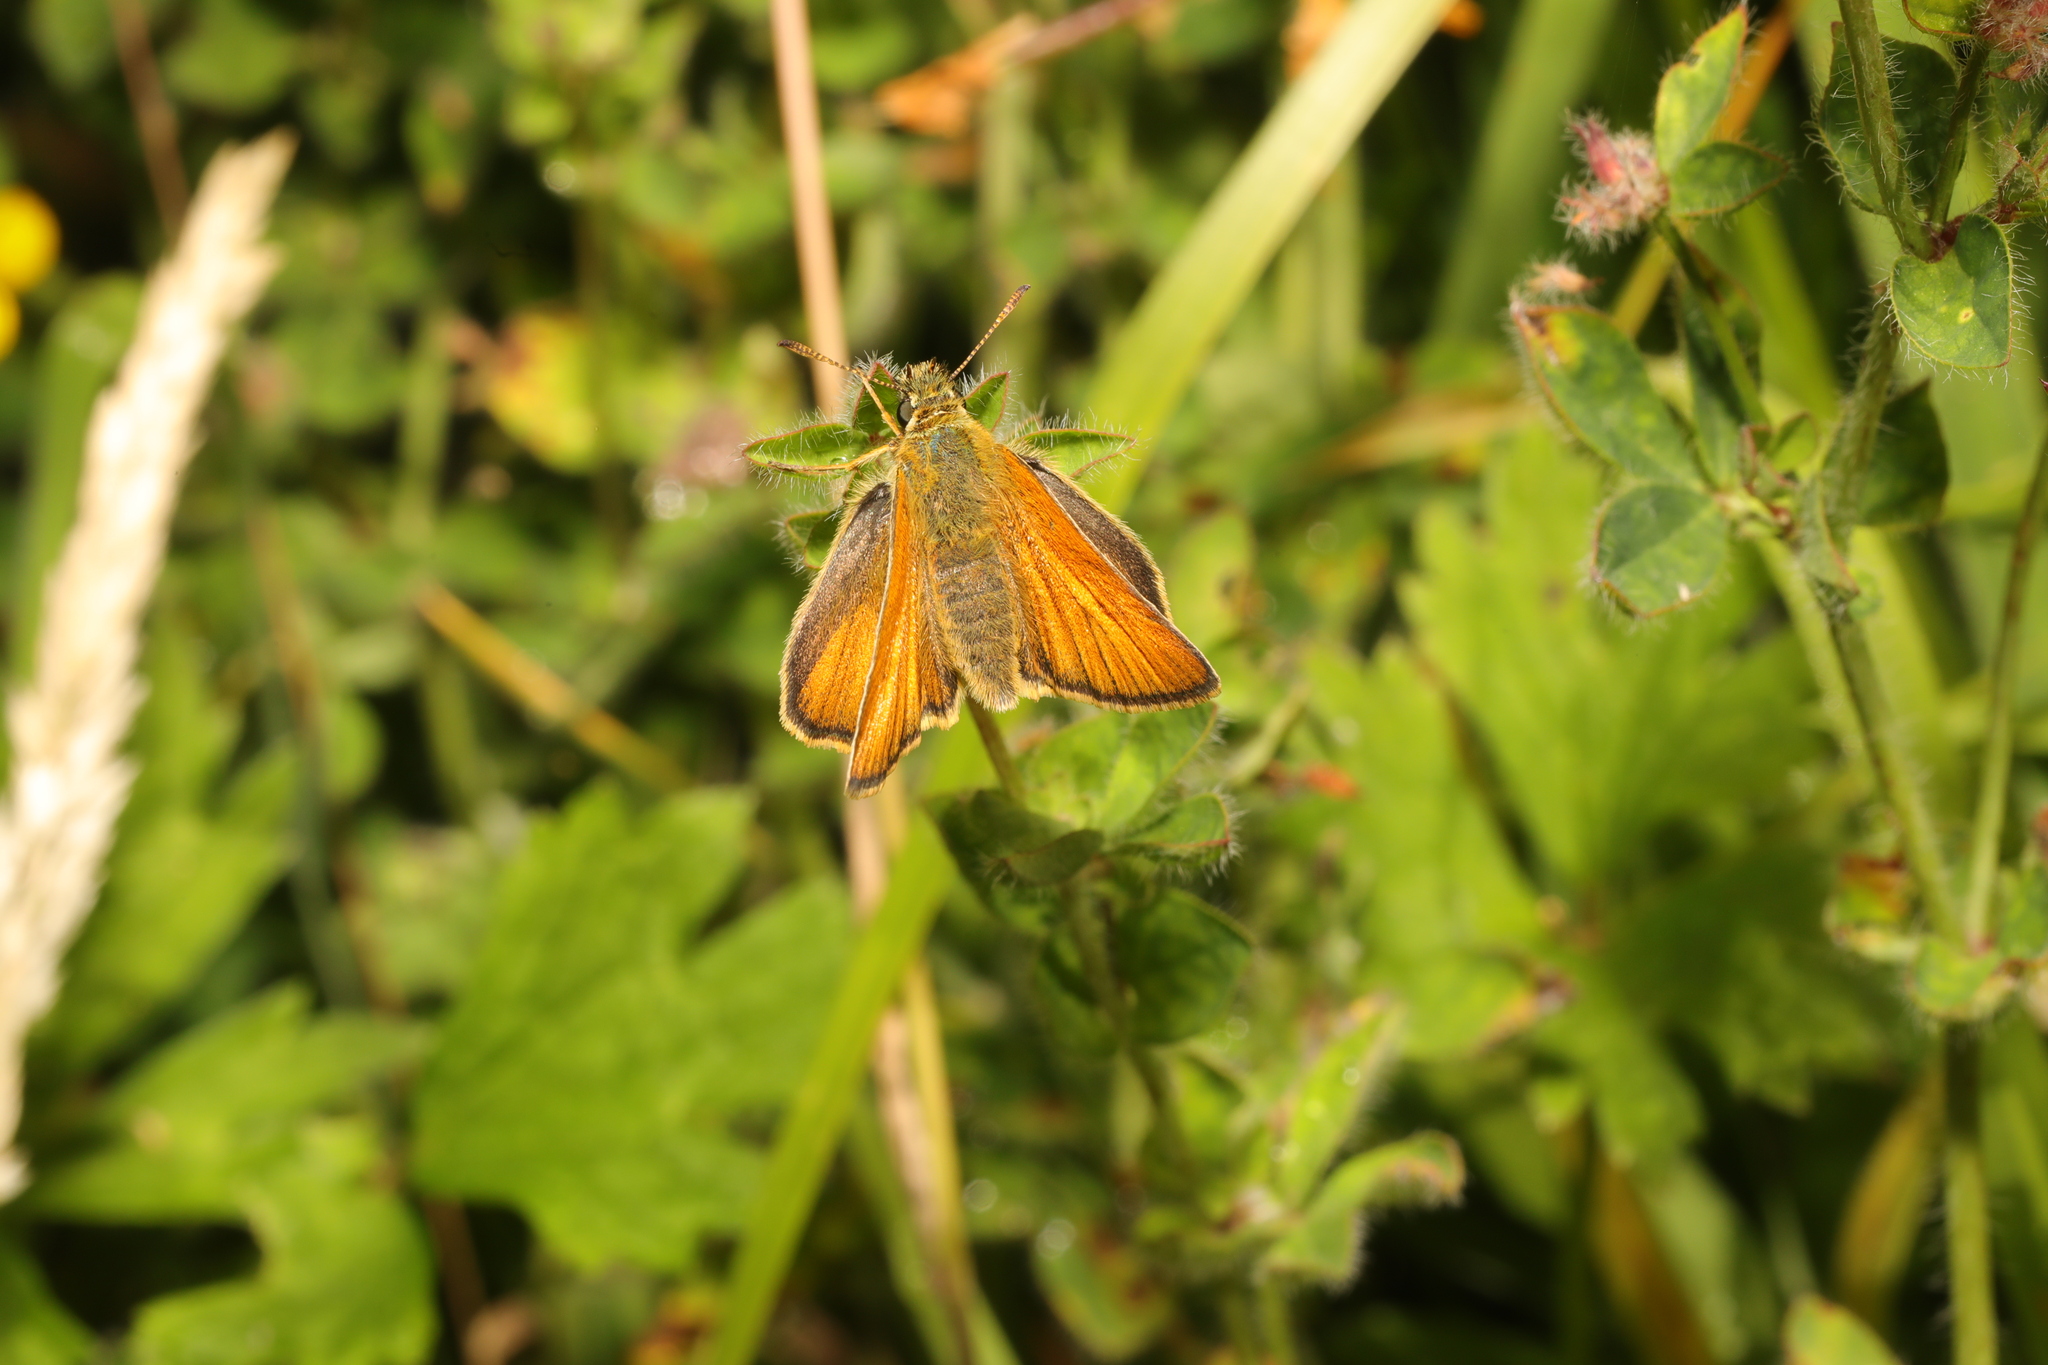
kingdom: Animalia
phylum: Arthropoda
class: Insecta
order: Lepidoptera
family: Hesperiidae
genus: Thymelicus
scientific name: Thymelicus sylvestris
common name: Small skipper
